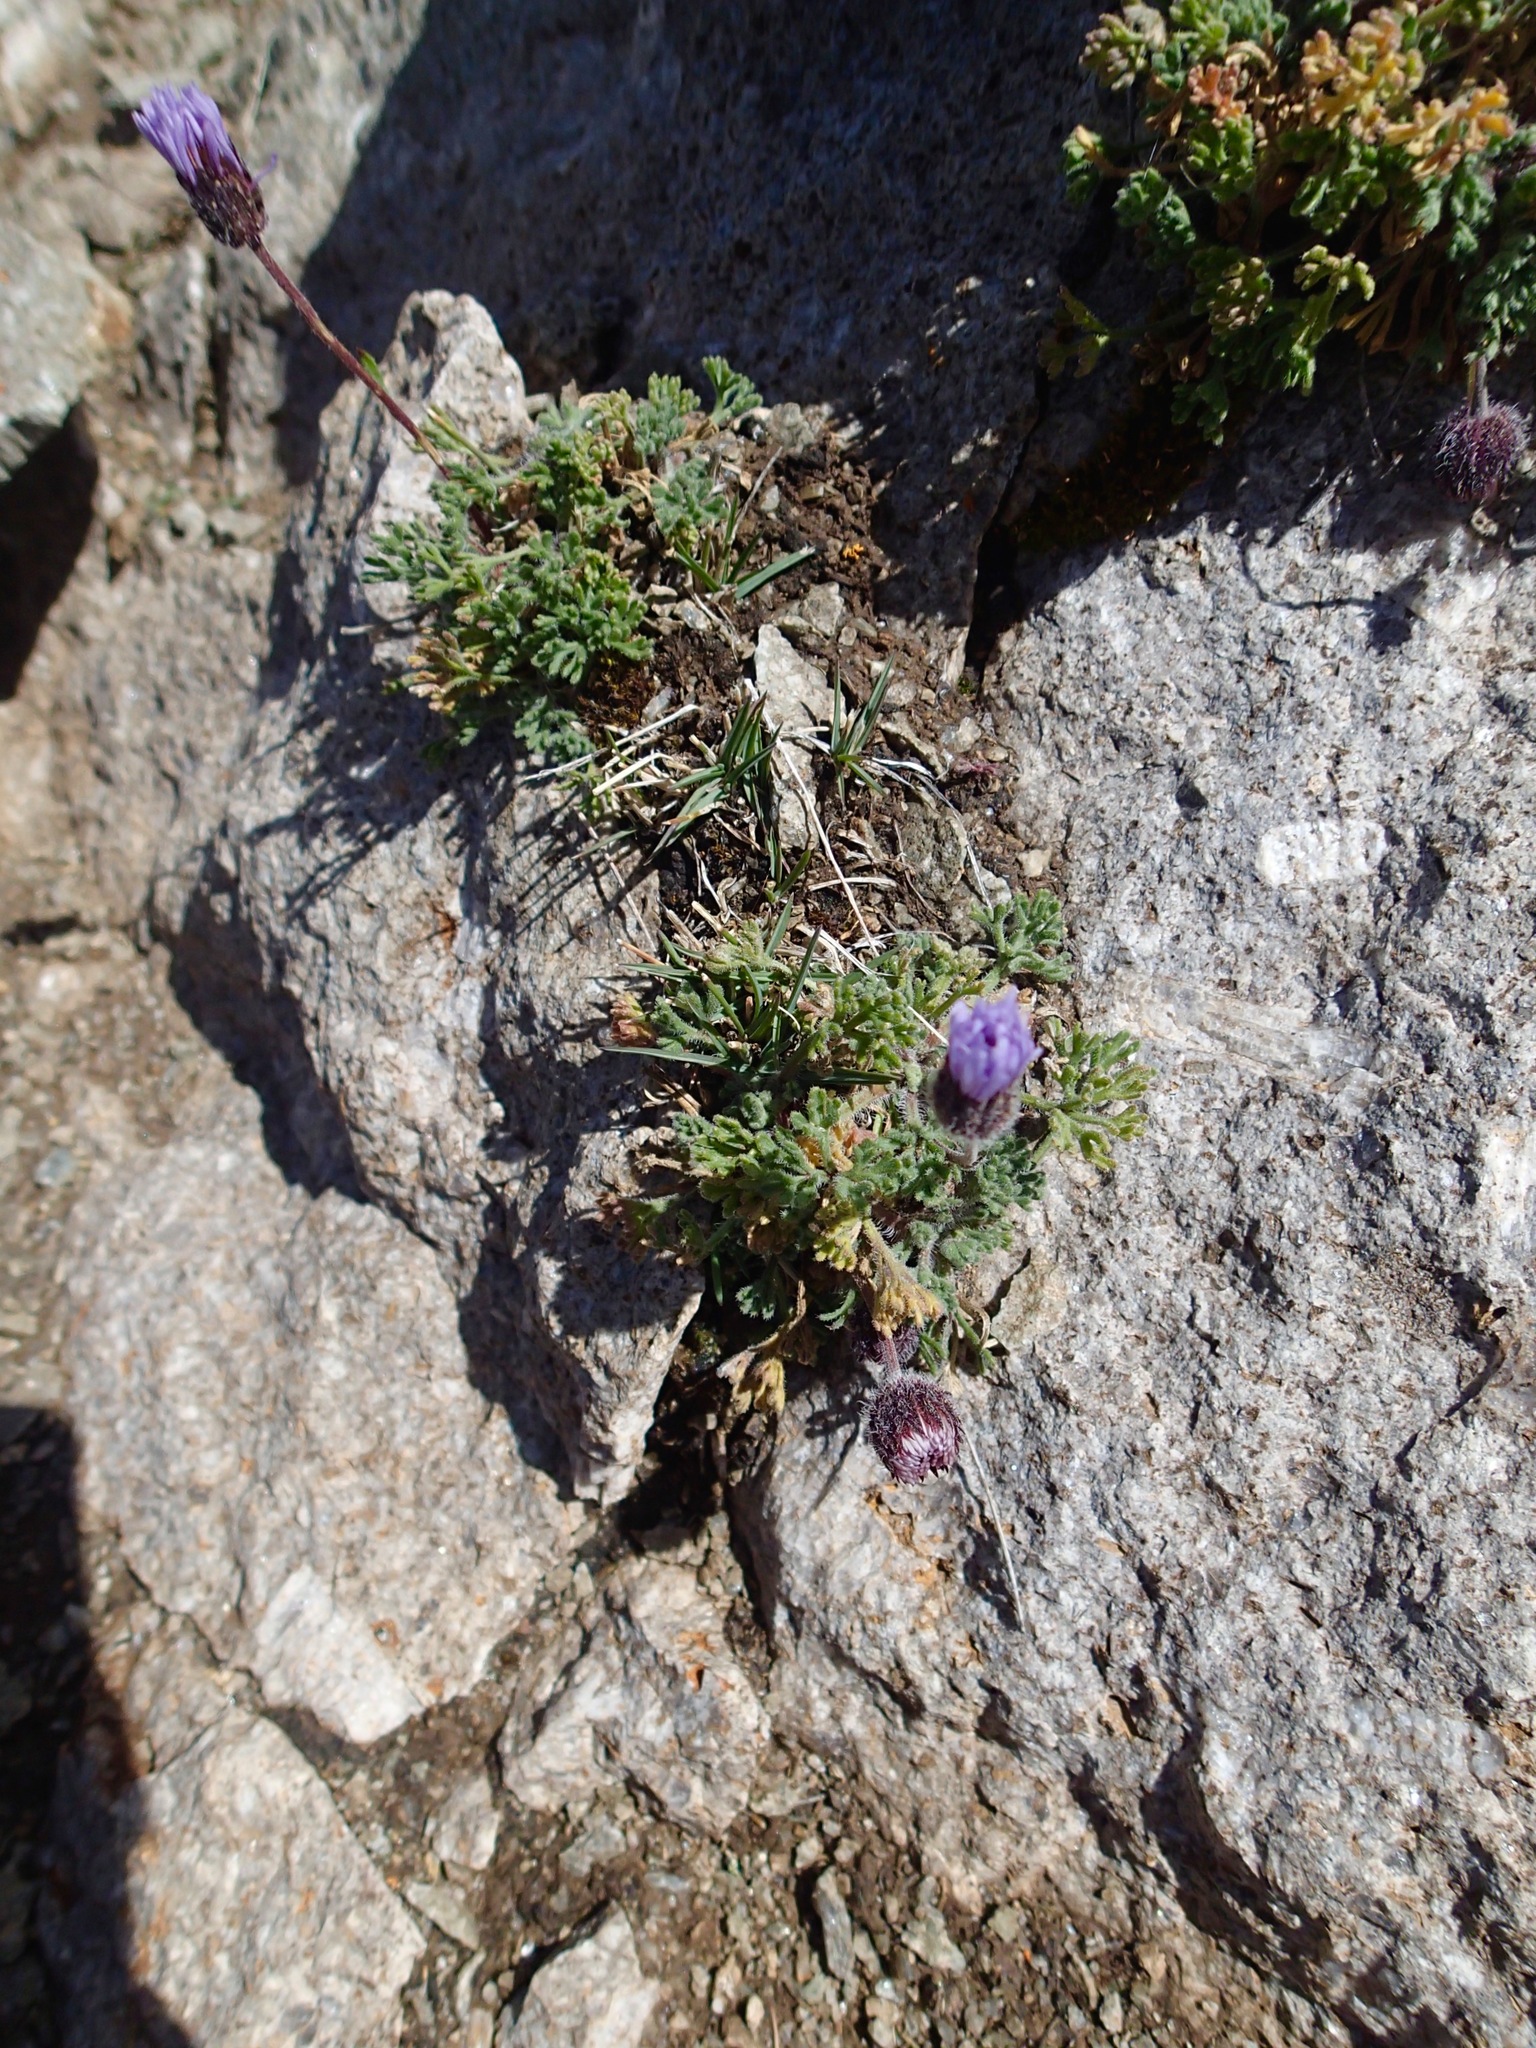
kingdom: Plantae
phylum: Tracheophyta
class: Magnoliopsida
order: Asterales
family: Asteraceae
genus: Erigeron
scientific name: Erigeron compositus
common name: Dwarf mountain fleabane
